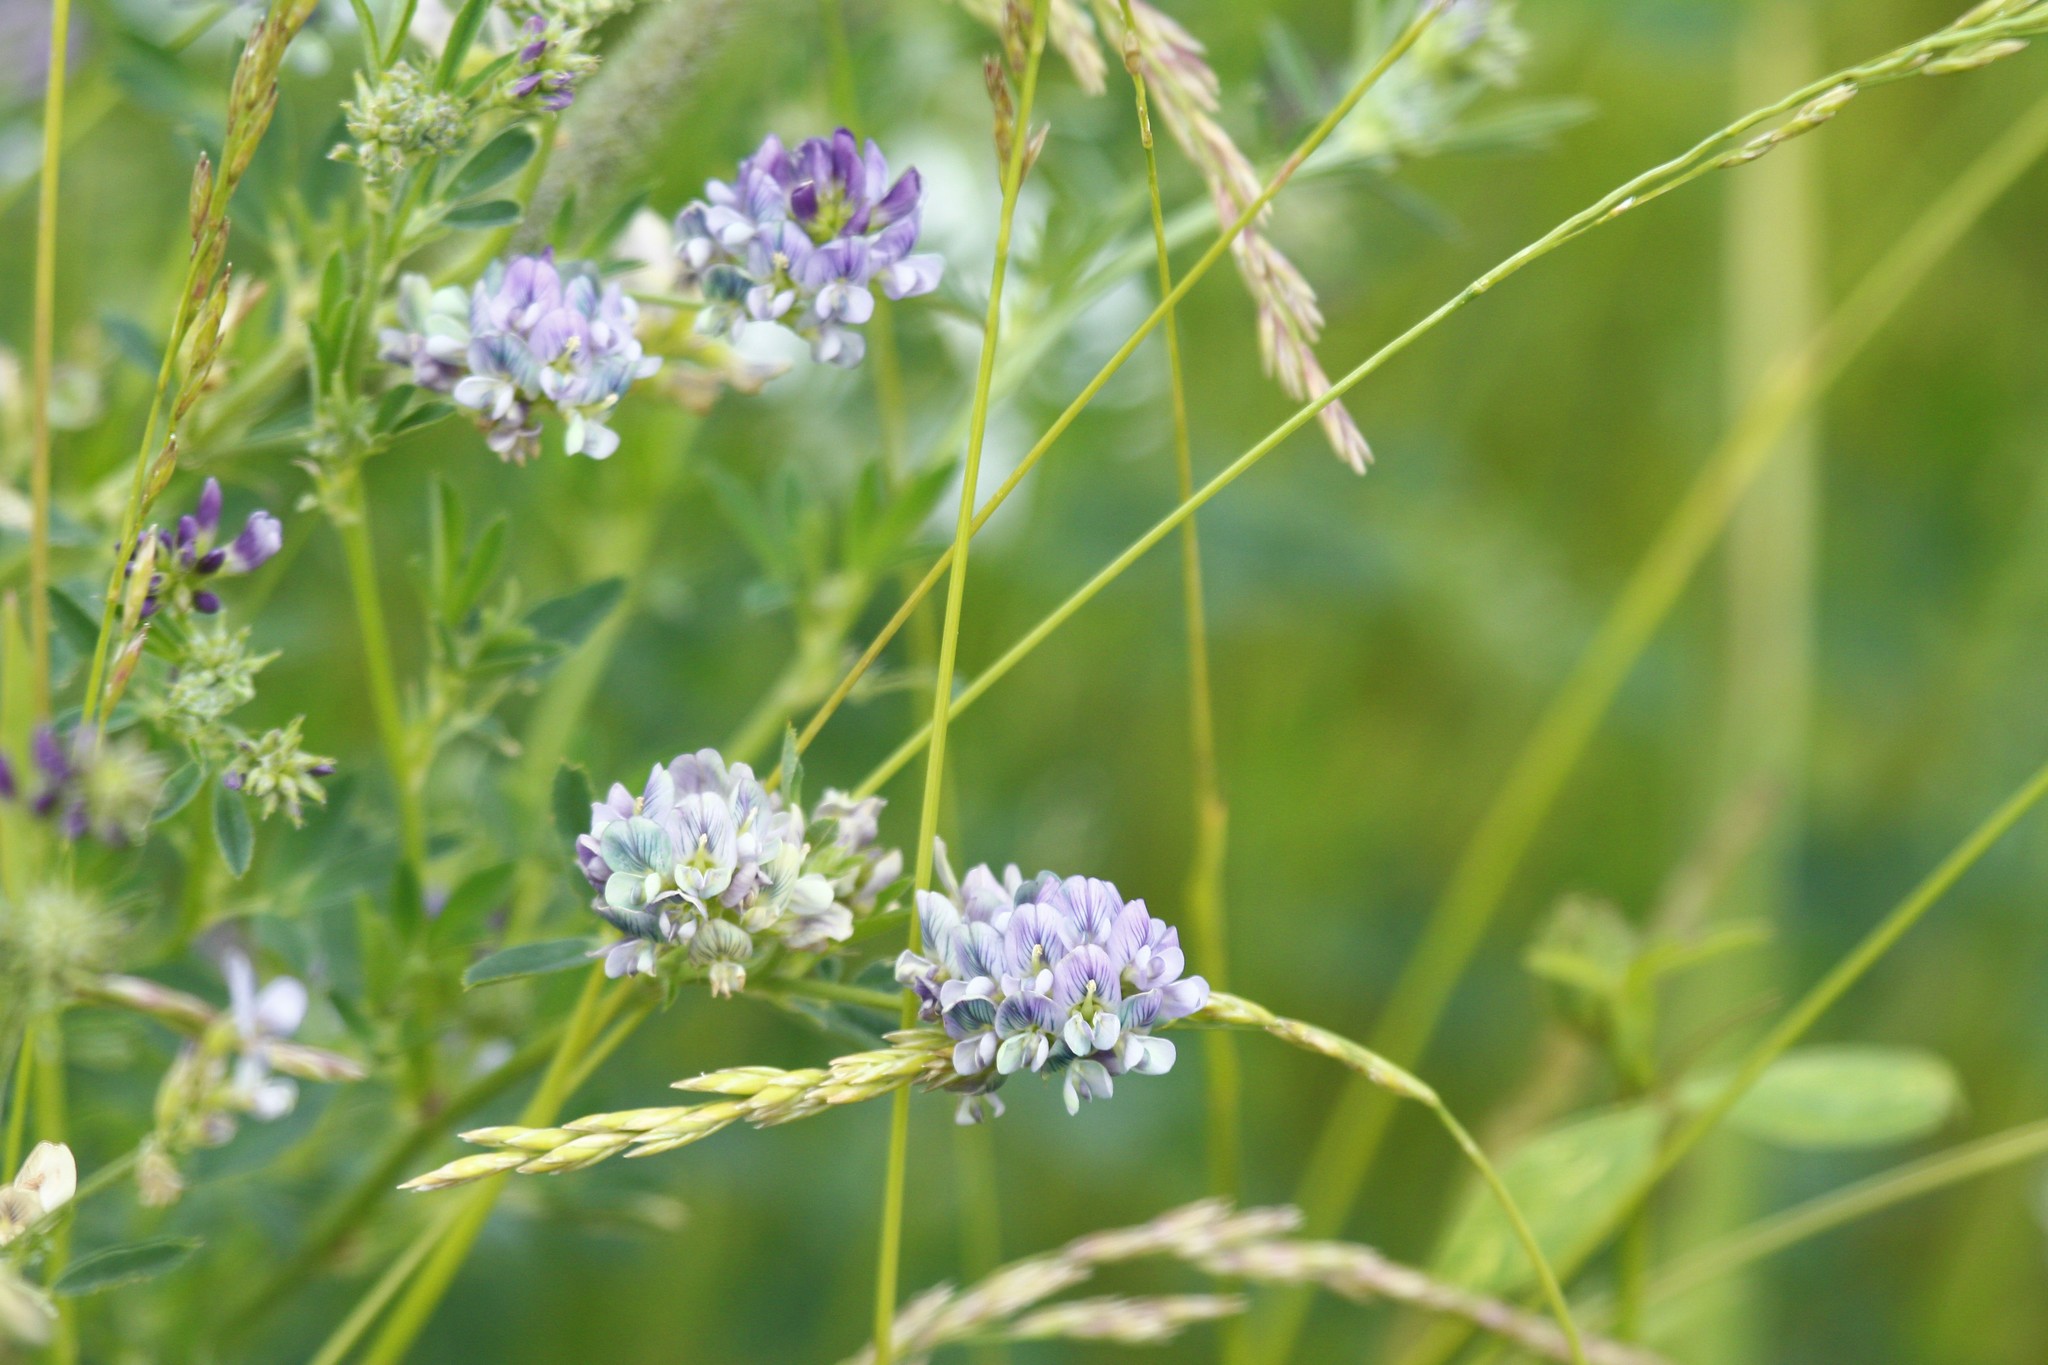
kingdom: Plantae
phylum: Tracheophyta
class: Magnoliopsida
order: Fabales
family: Fabaceae
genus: Medicago
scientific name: Medicago varia
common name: Sand lucerne
